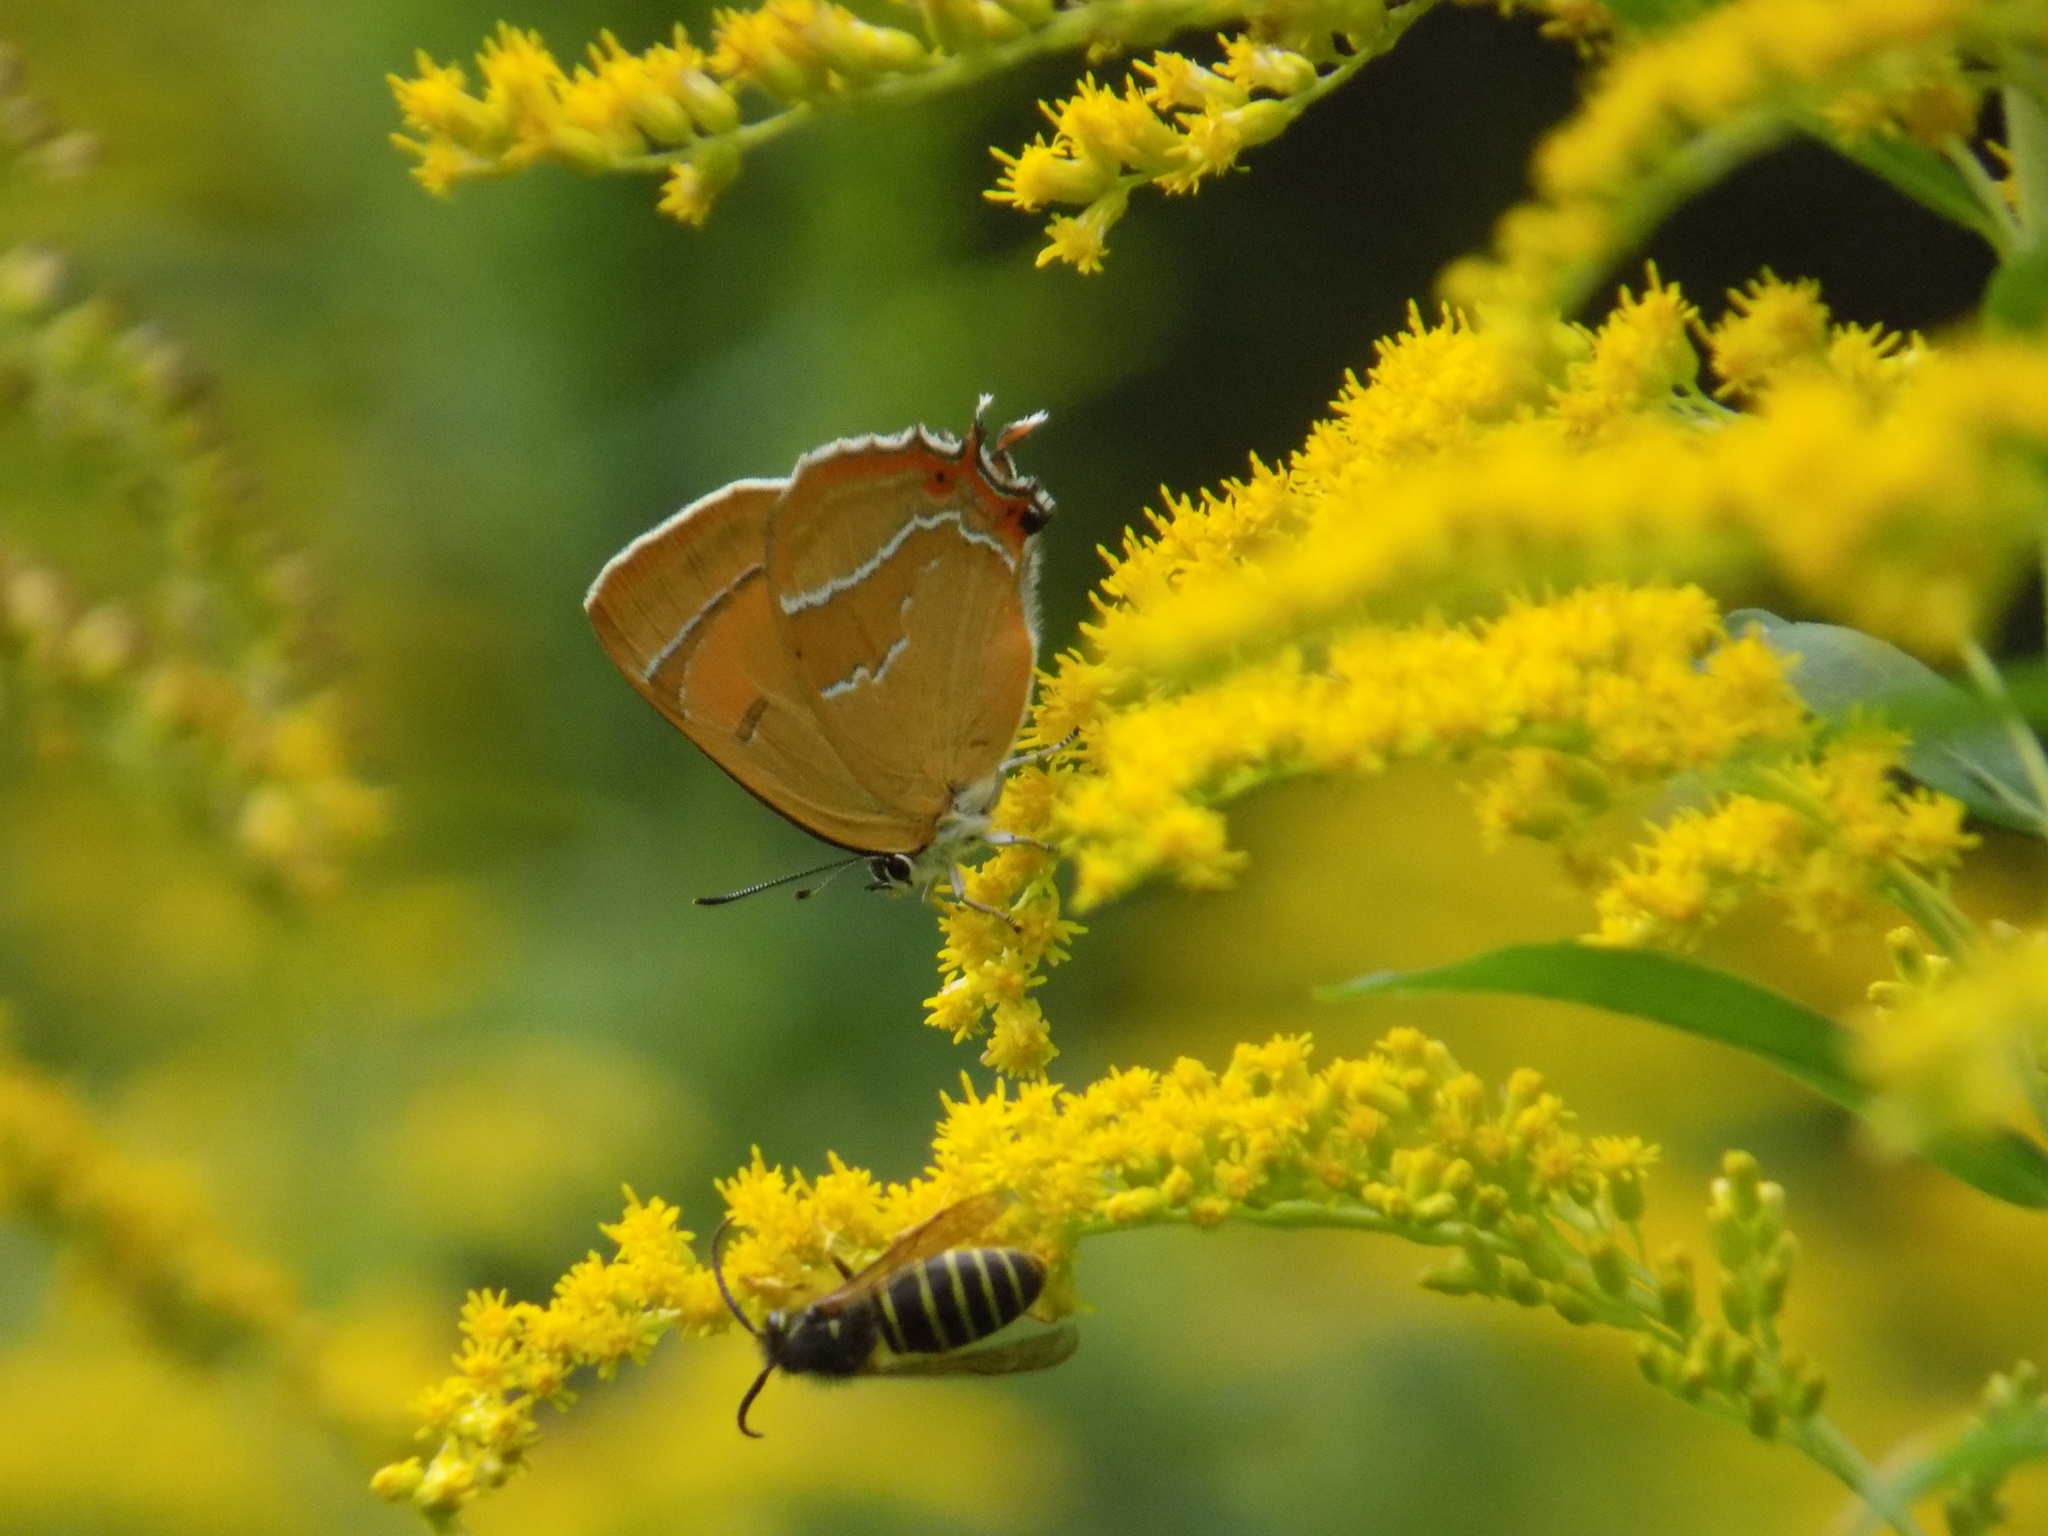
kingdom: Animalia
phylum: Arthropoda
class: Insecta
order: Lepidoptera
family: Lycaenidae
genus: Thecla
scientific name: Thecla betulae
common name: Brown hairstreak
